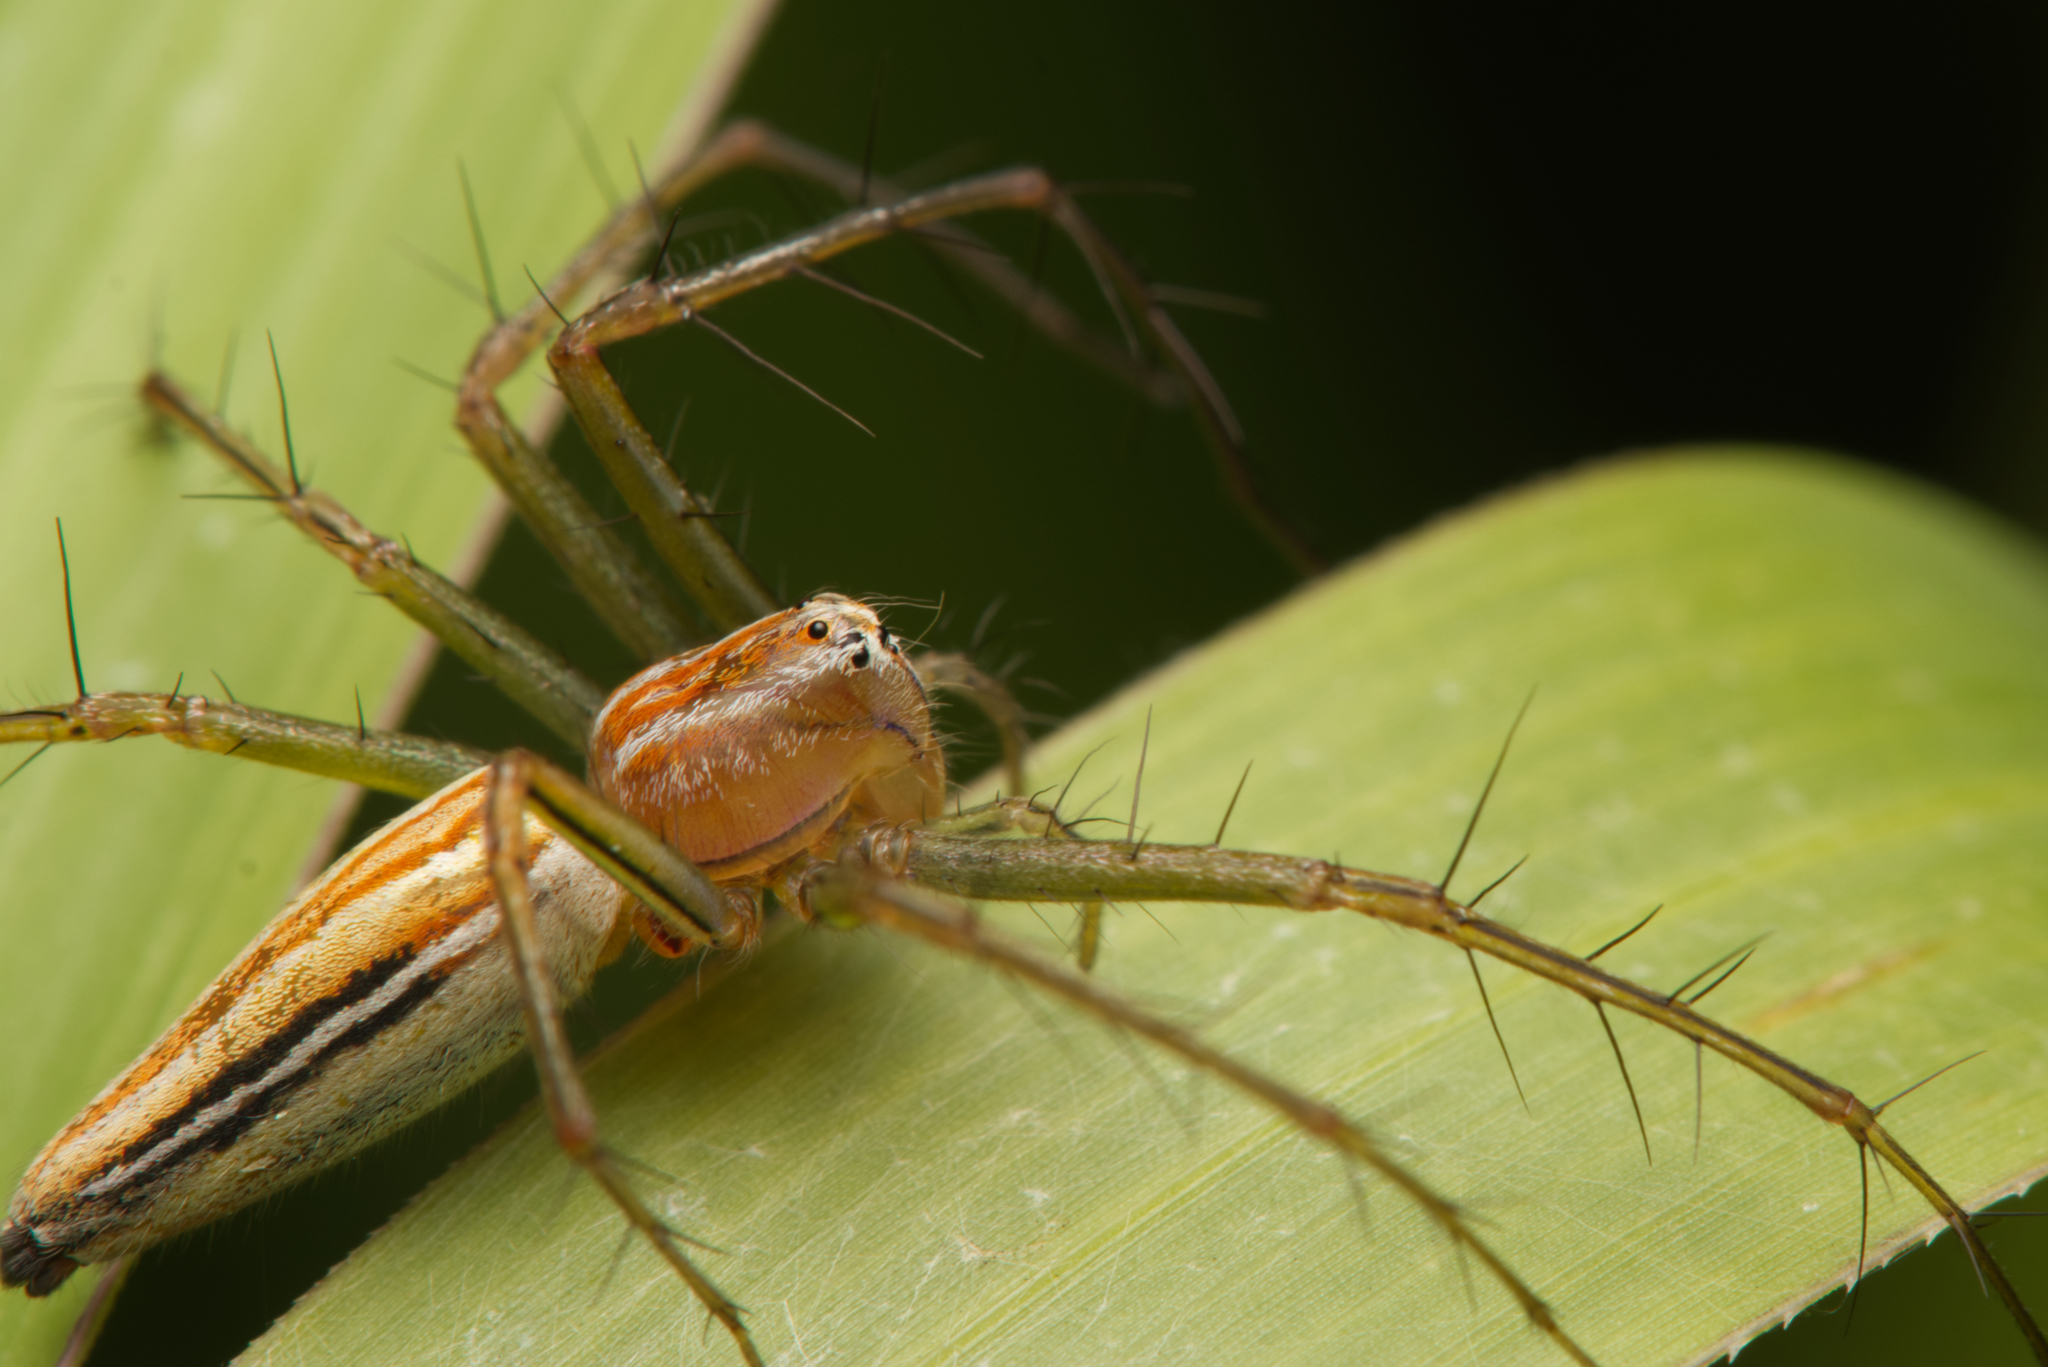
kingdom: Animalia
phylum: Arthropoda
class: Arachnida
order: Araneae
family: Oxyopidae
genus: Oxyopes
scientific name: Oxyopes macilentus
